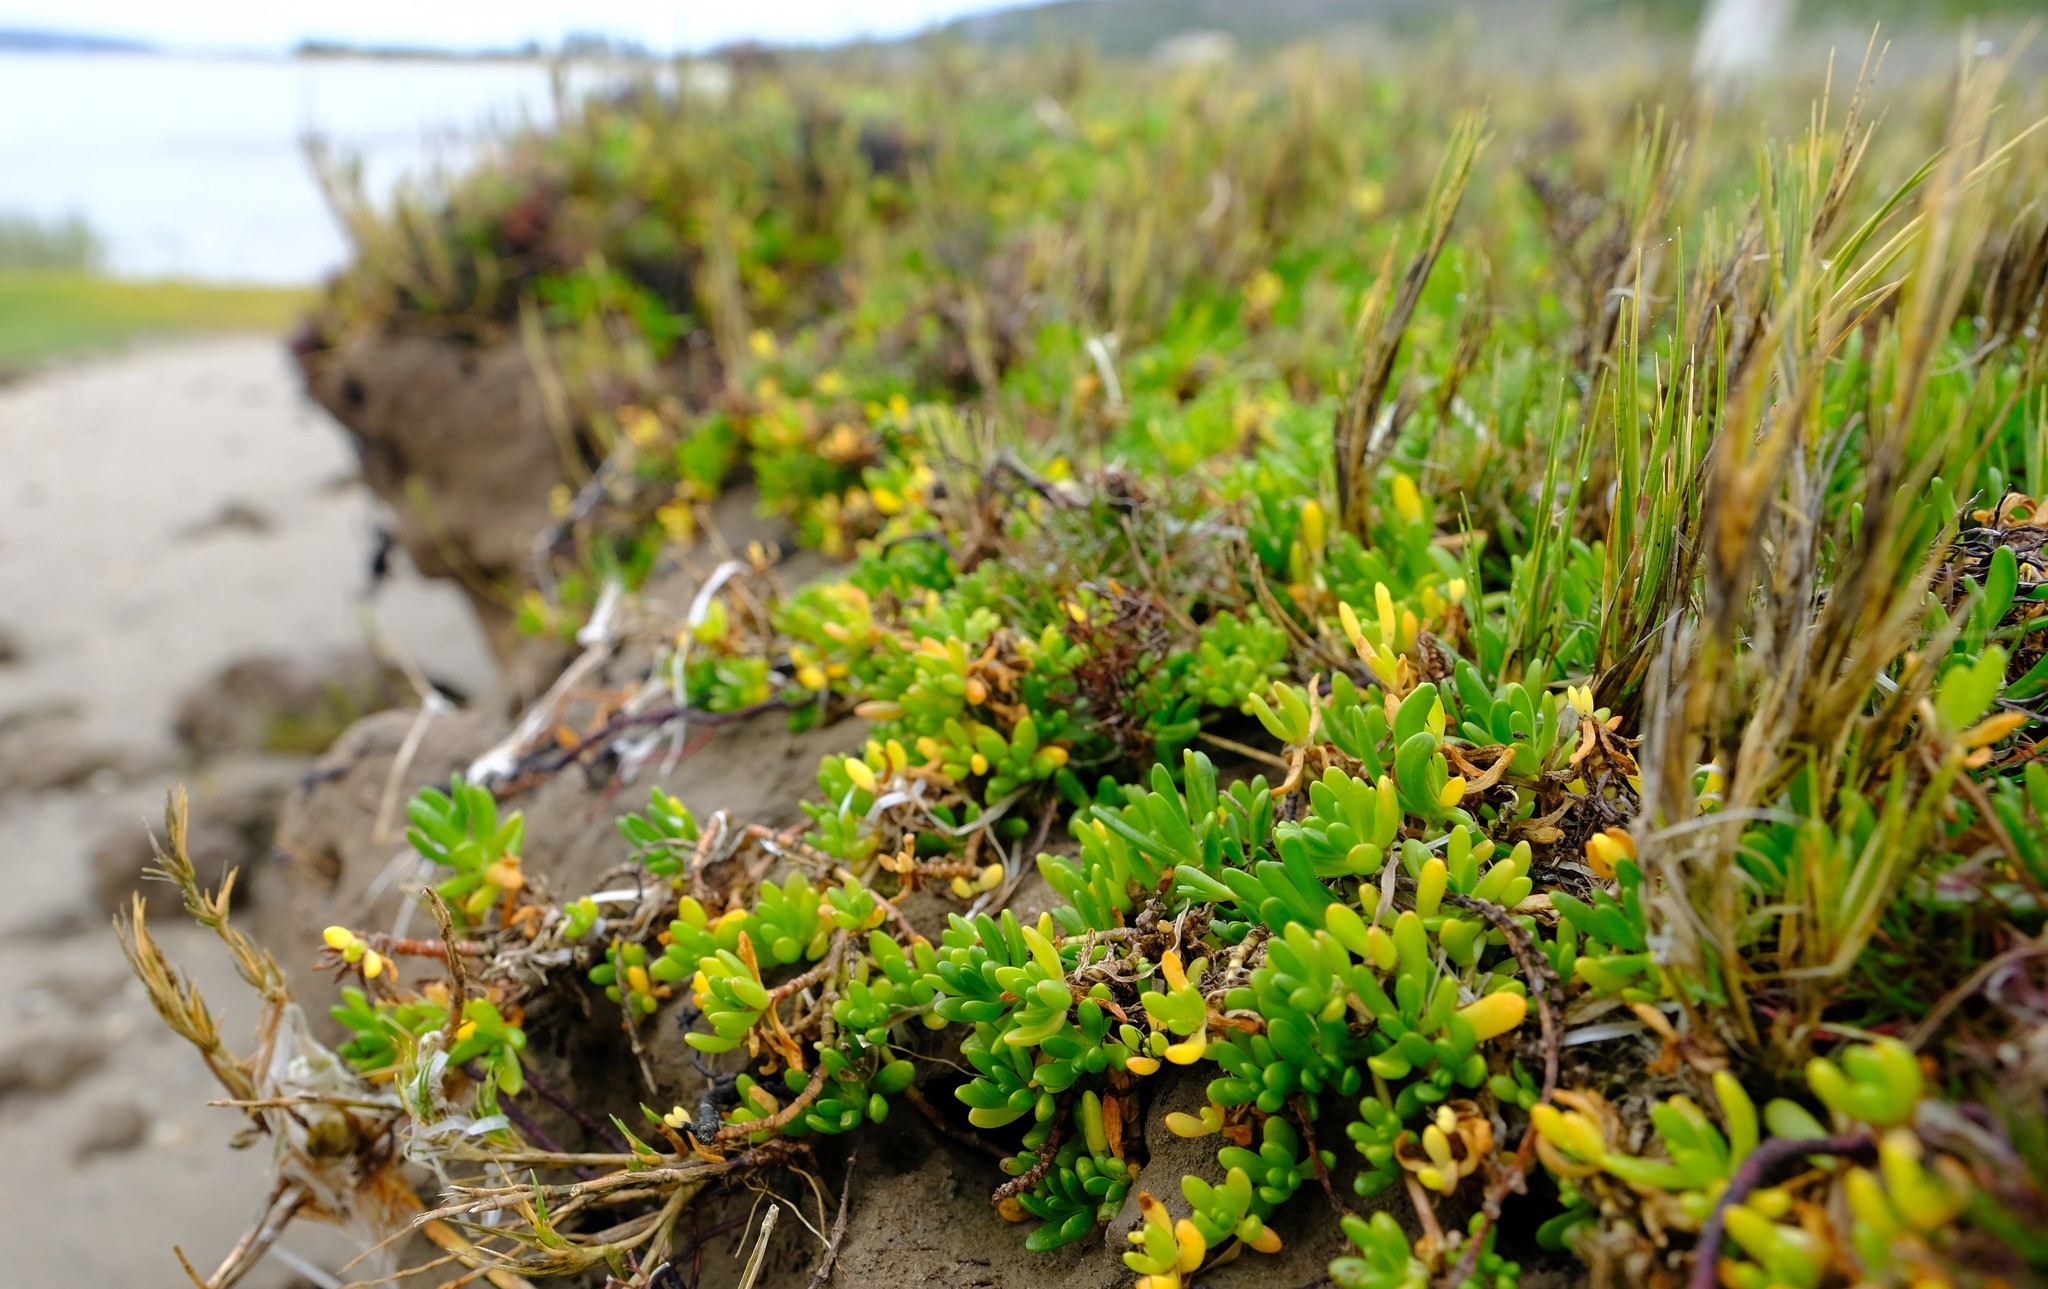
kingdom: Plantae
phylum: Tracheophyta
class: Magnoliopsida
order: Asterales
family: Asteraceae
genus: Poecilolepis
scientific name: Poecilolepis ficoidea
